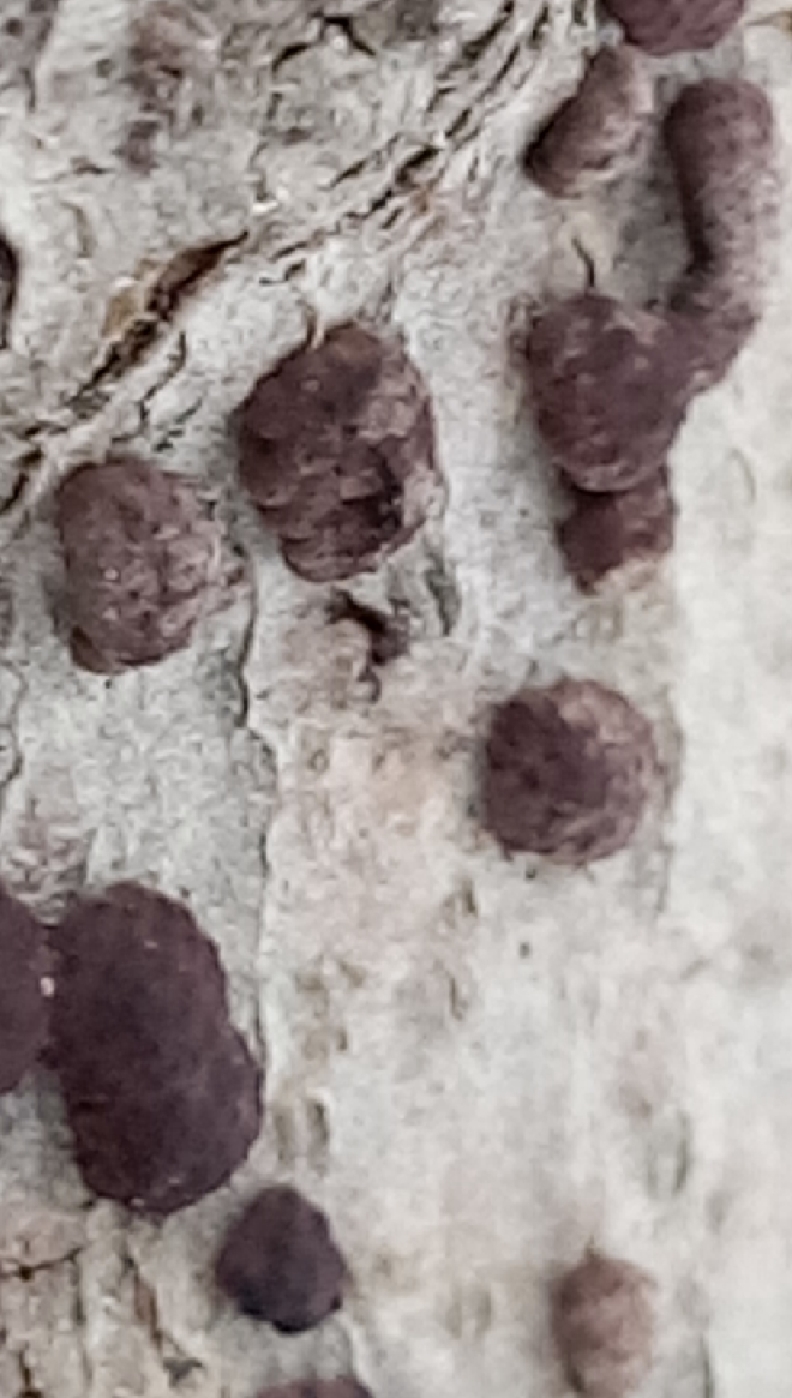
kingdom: Fungi
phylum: Ascomycota
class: Sordariomycetes
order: Xylariales
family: Hypoxylaceae
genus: Jackrogersella
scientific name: Jackrogersella cohaerens
